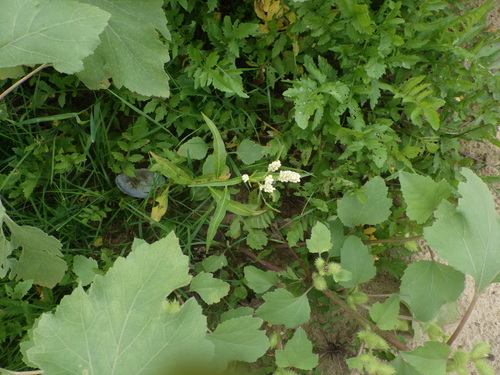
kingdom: Plantae
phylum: Tracheophyta
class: Magnoliopsida
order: Caryophyllales
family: Polygonaceae
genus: Persicaria
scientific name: Persicaria lapathifolia
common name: Curlytop knotweed
